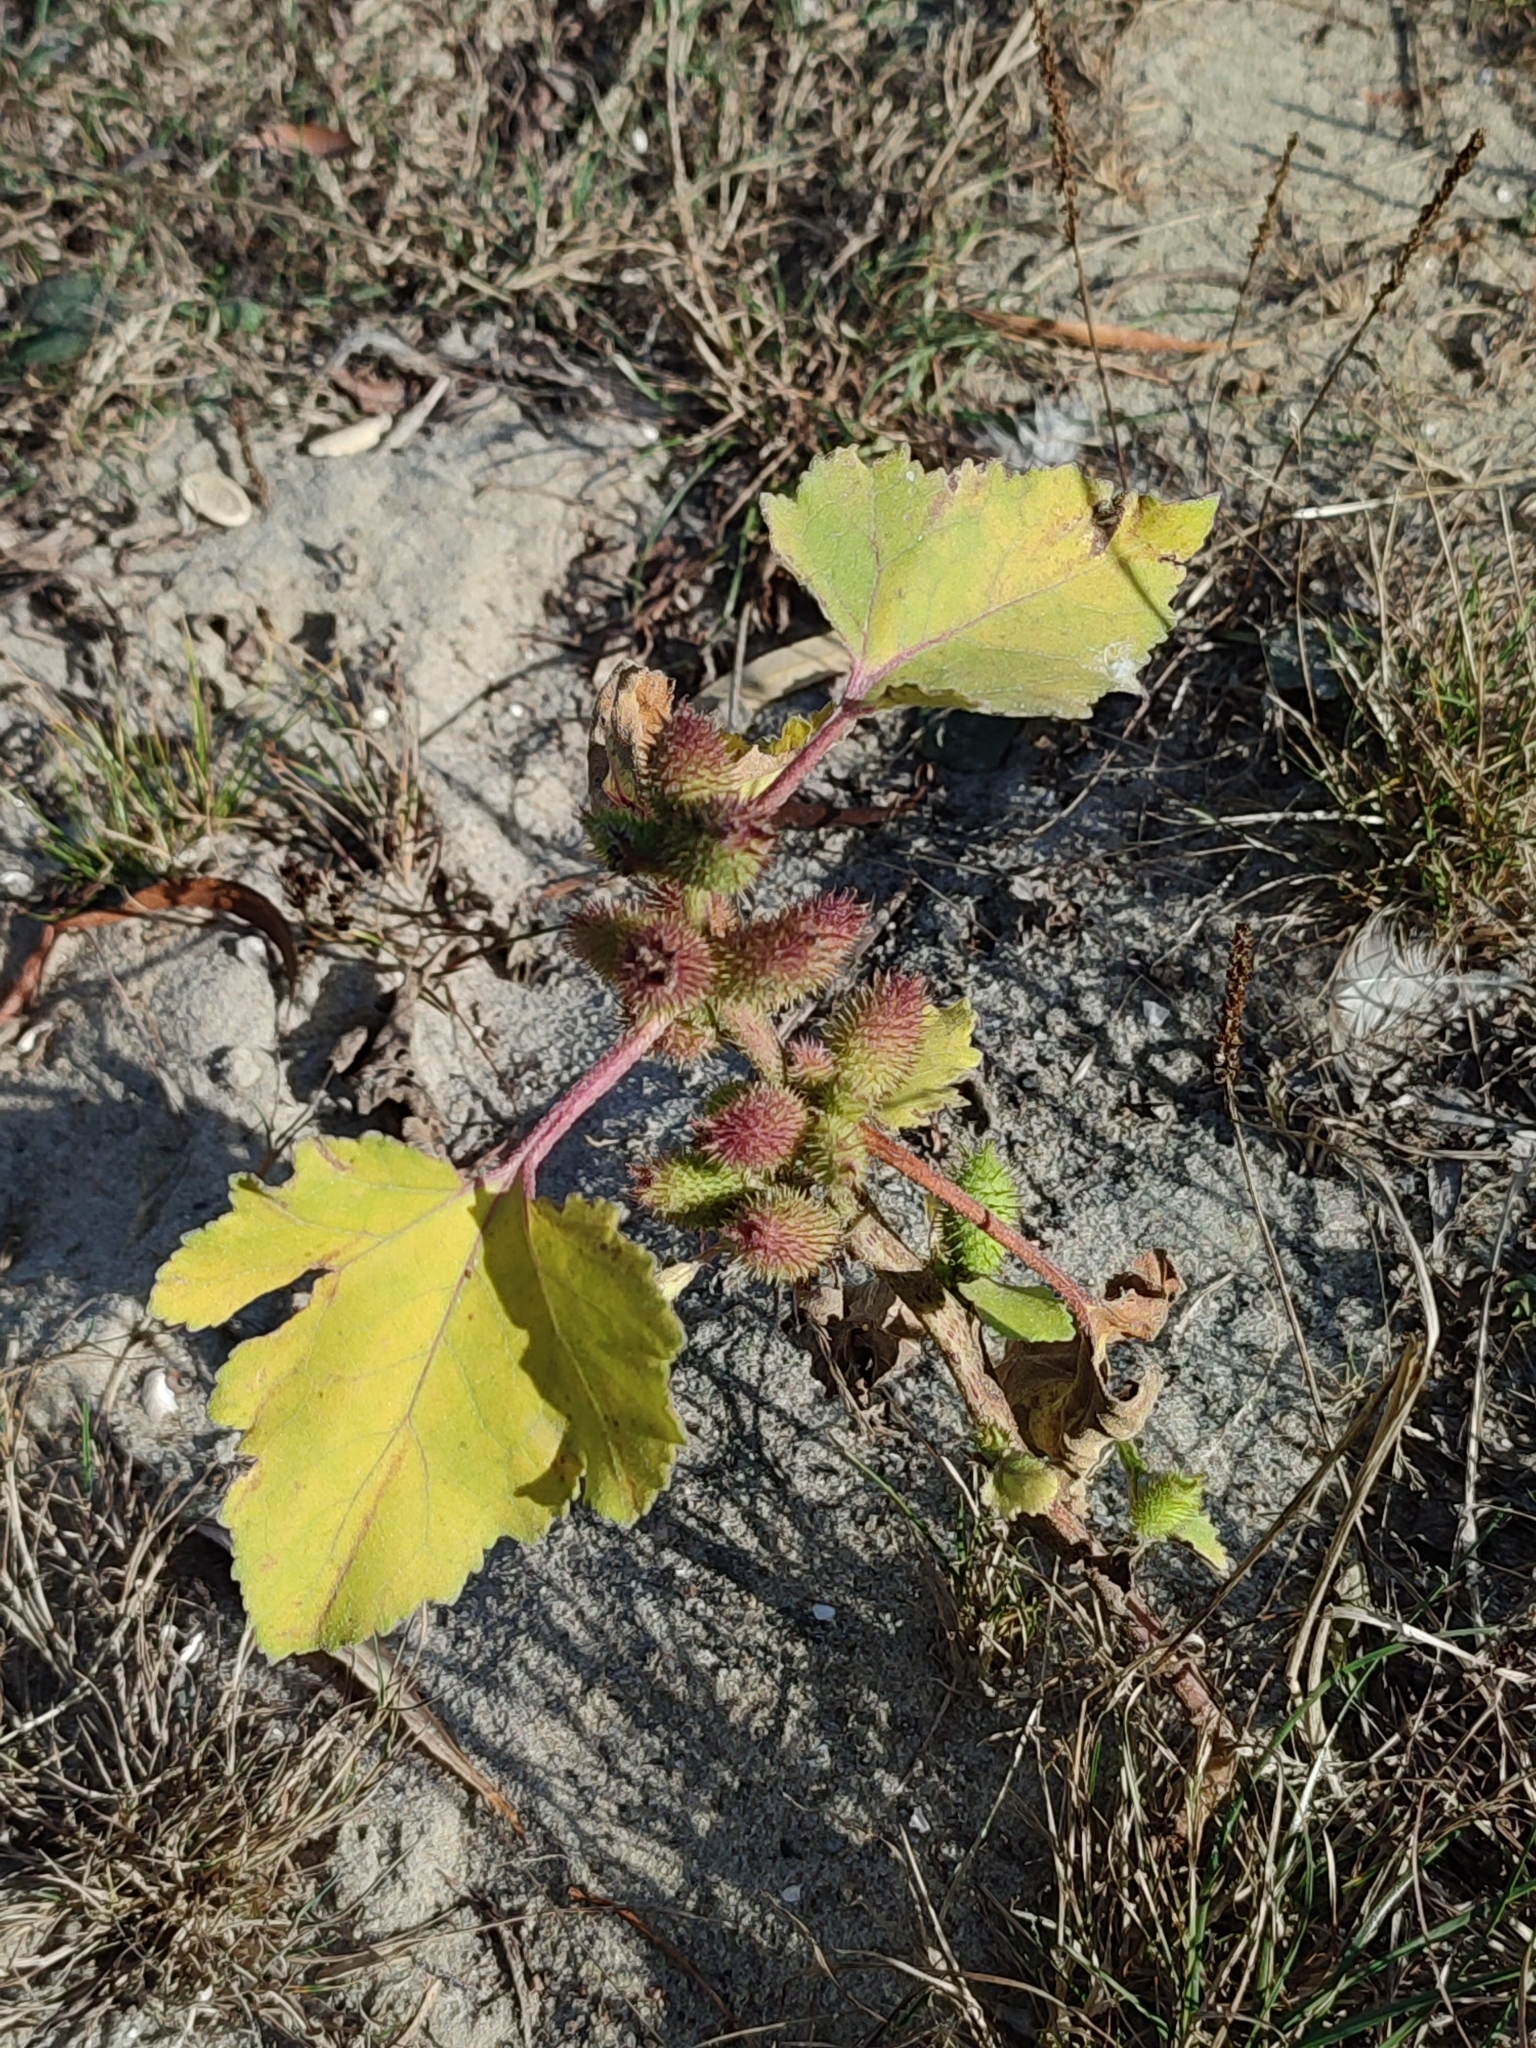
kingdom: Plantae
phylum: Tracheophyta
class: Magnoliopsida
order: Asterales
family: Asteraceae
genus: Xanthium
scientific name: Xanthium orientale
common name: Californian burr
